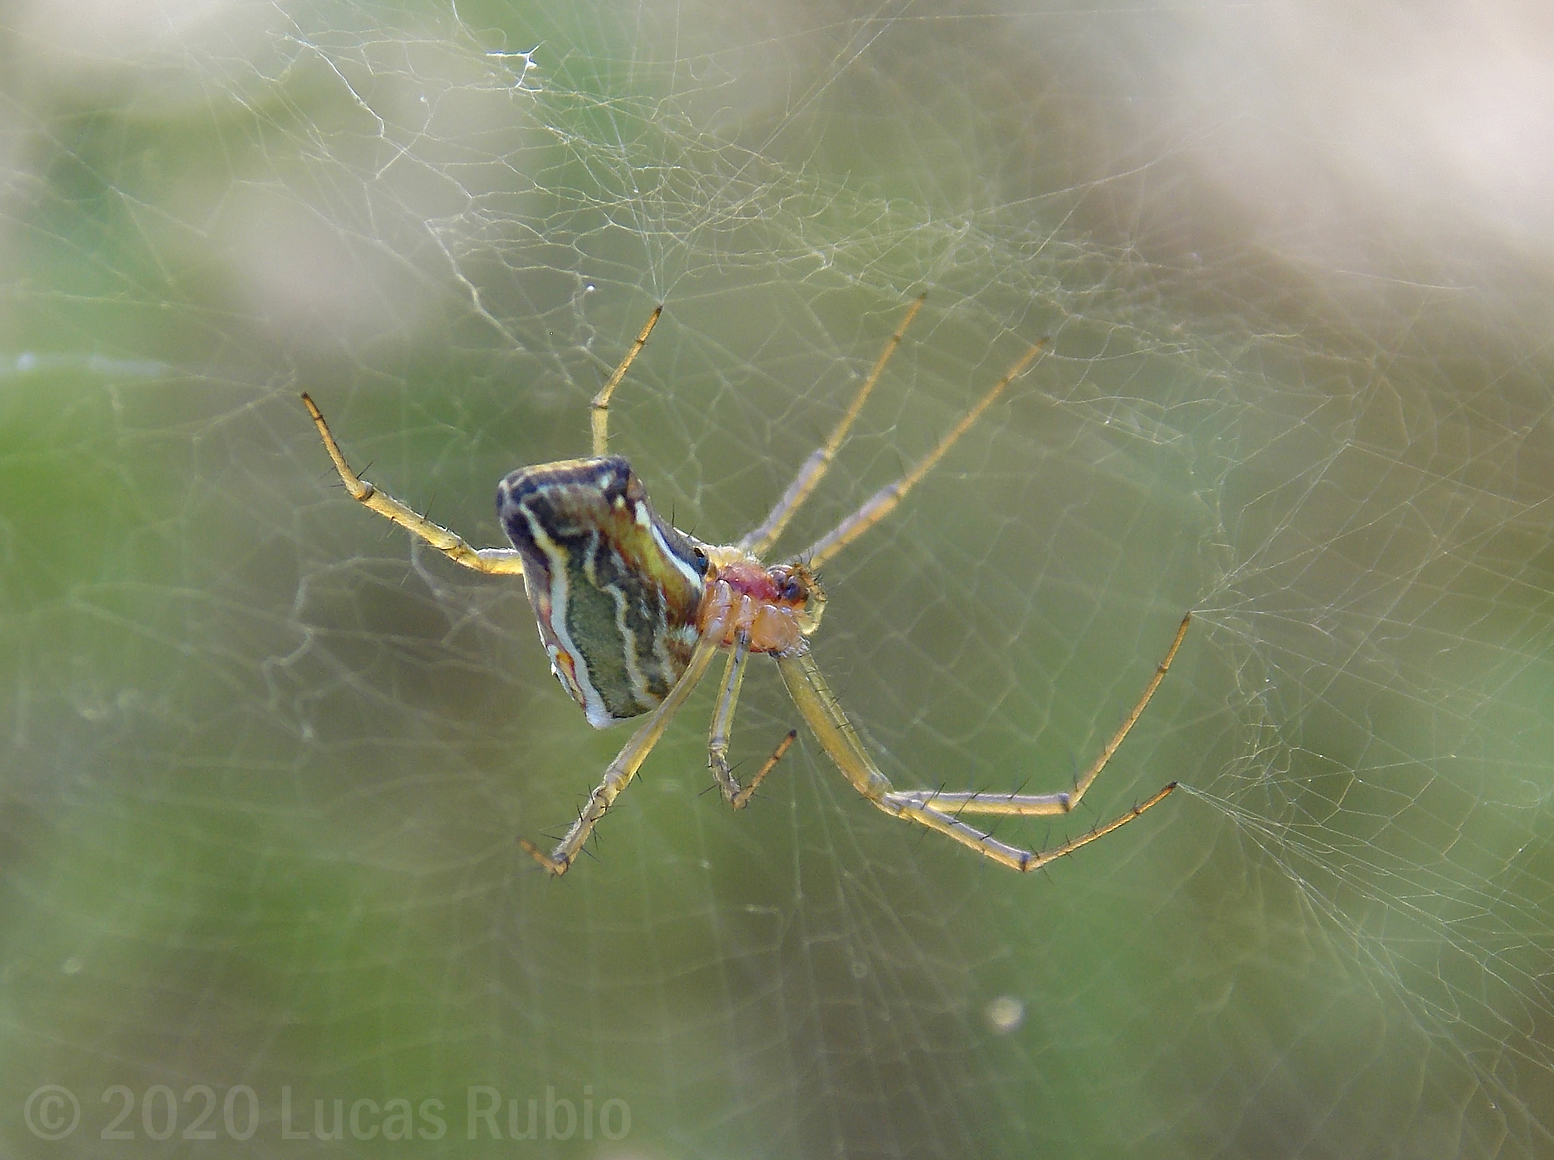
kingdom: Animalia
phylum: Arthropoda
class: Arachnida
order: Araneae
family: Araneidae
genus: Mecynogea
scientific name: Mecynogea erythromela
